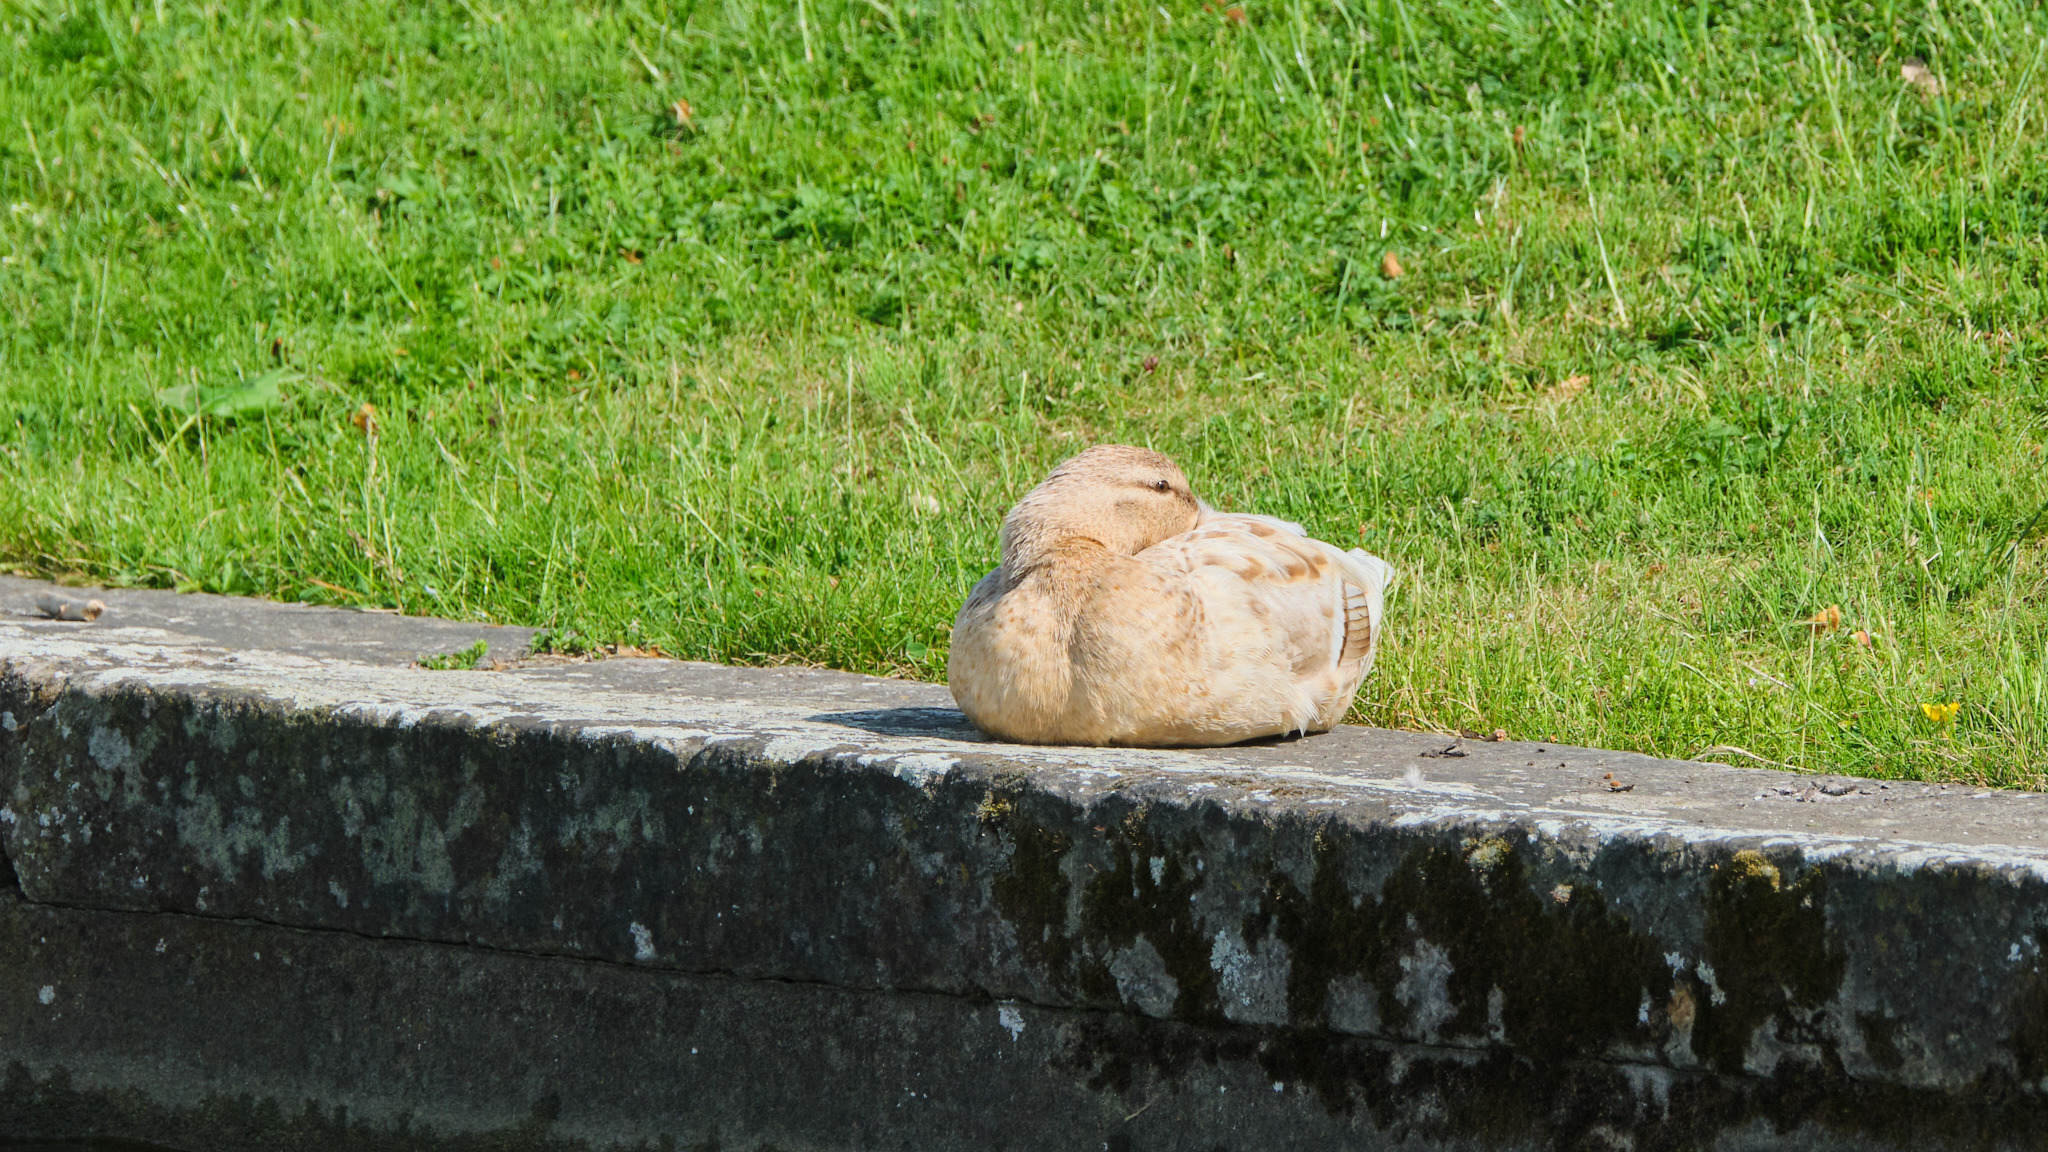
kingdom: Animalia
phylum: Chordata
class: Aves
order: Anseriformes
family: Anatidae
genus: Anas
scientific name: Anas platyrhynchos
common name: Mallard
